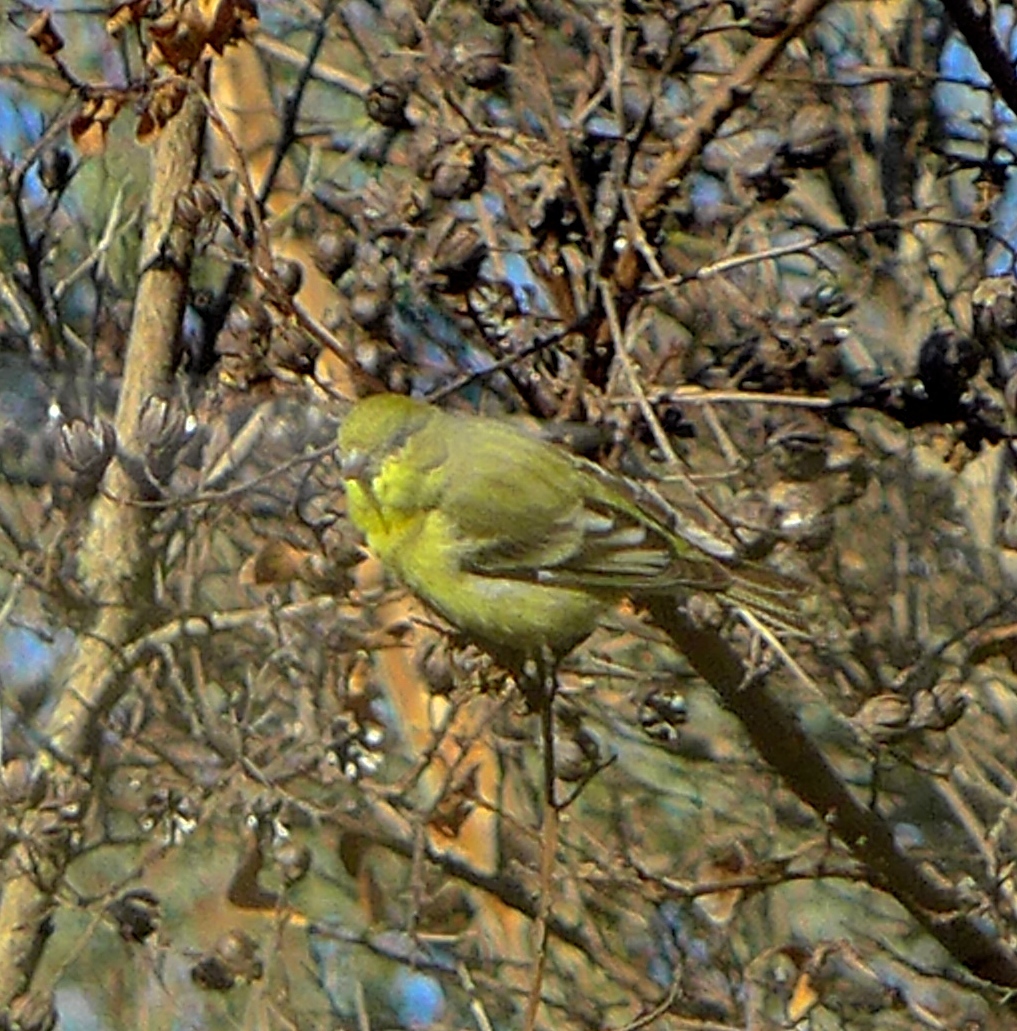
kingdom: Animalia
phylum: Chordata
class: Aves
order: Passeriformes
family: Fringillidae
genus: Spinus
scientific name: Spinus psaltria
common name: Lesser goldfinch
